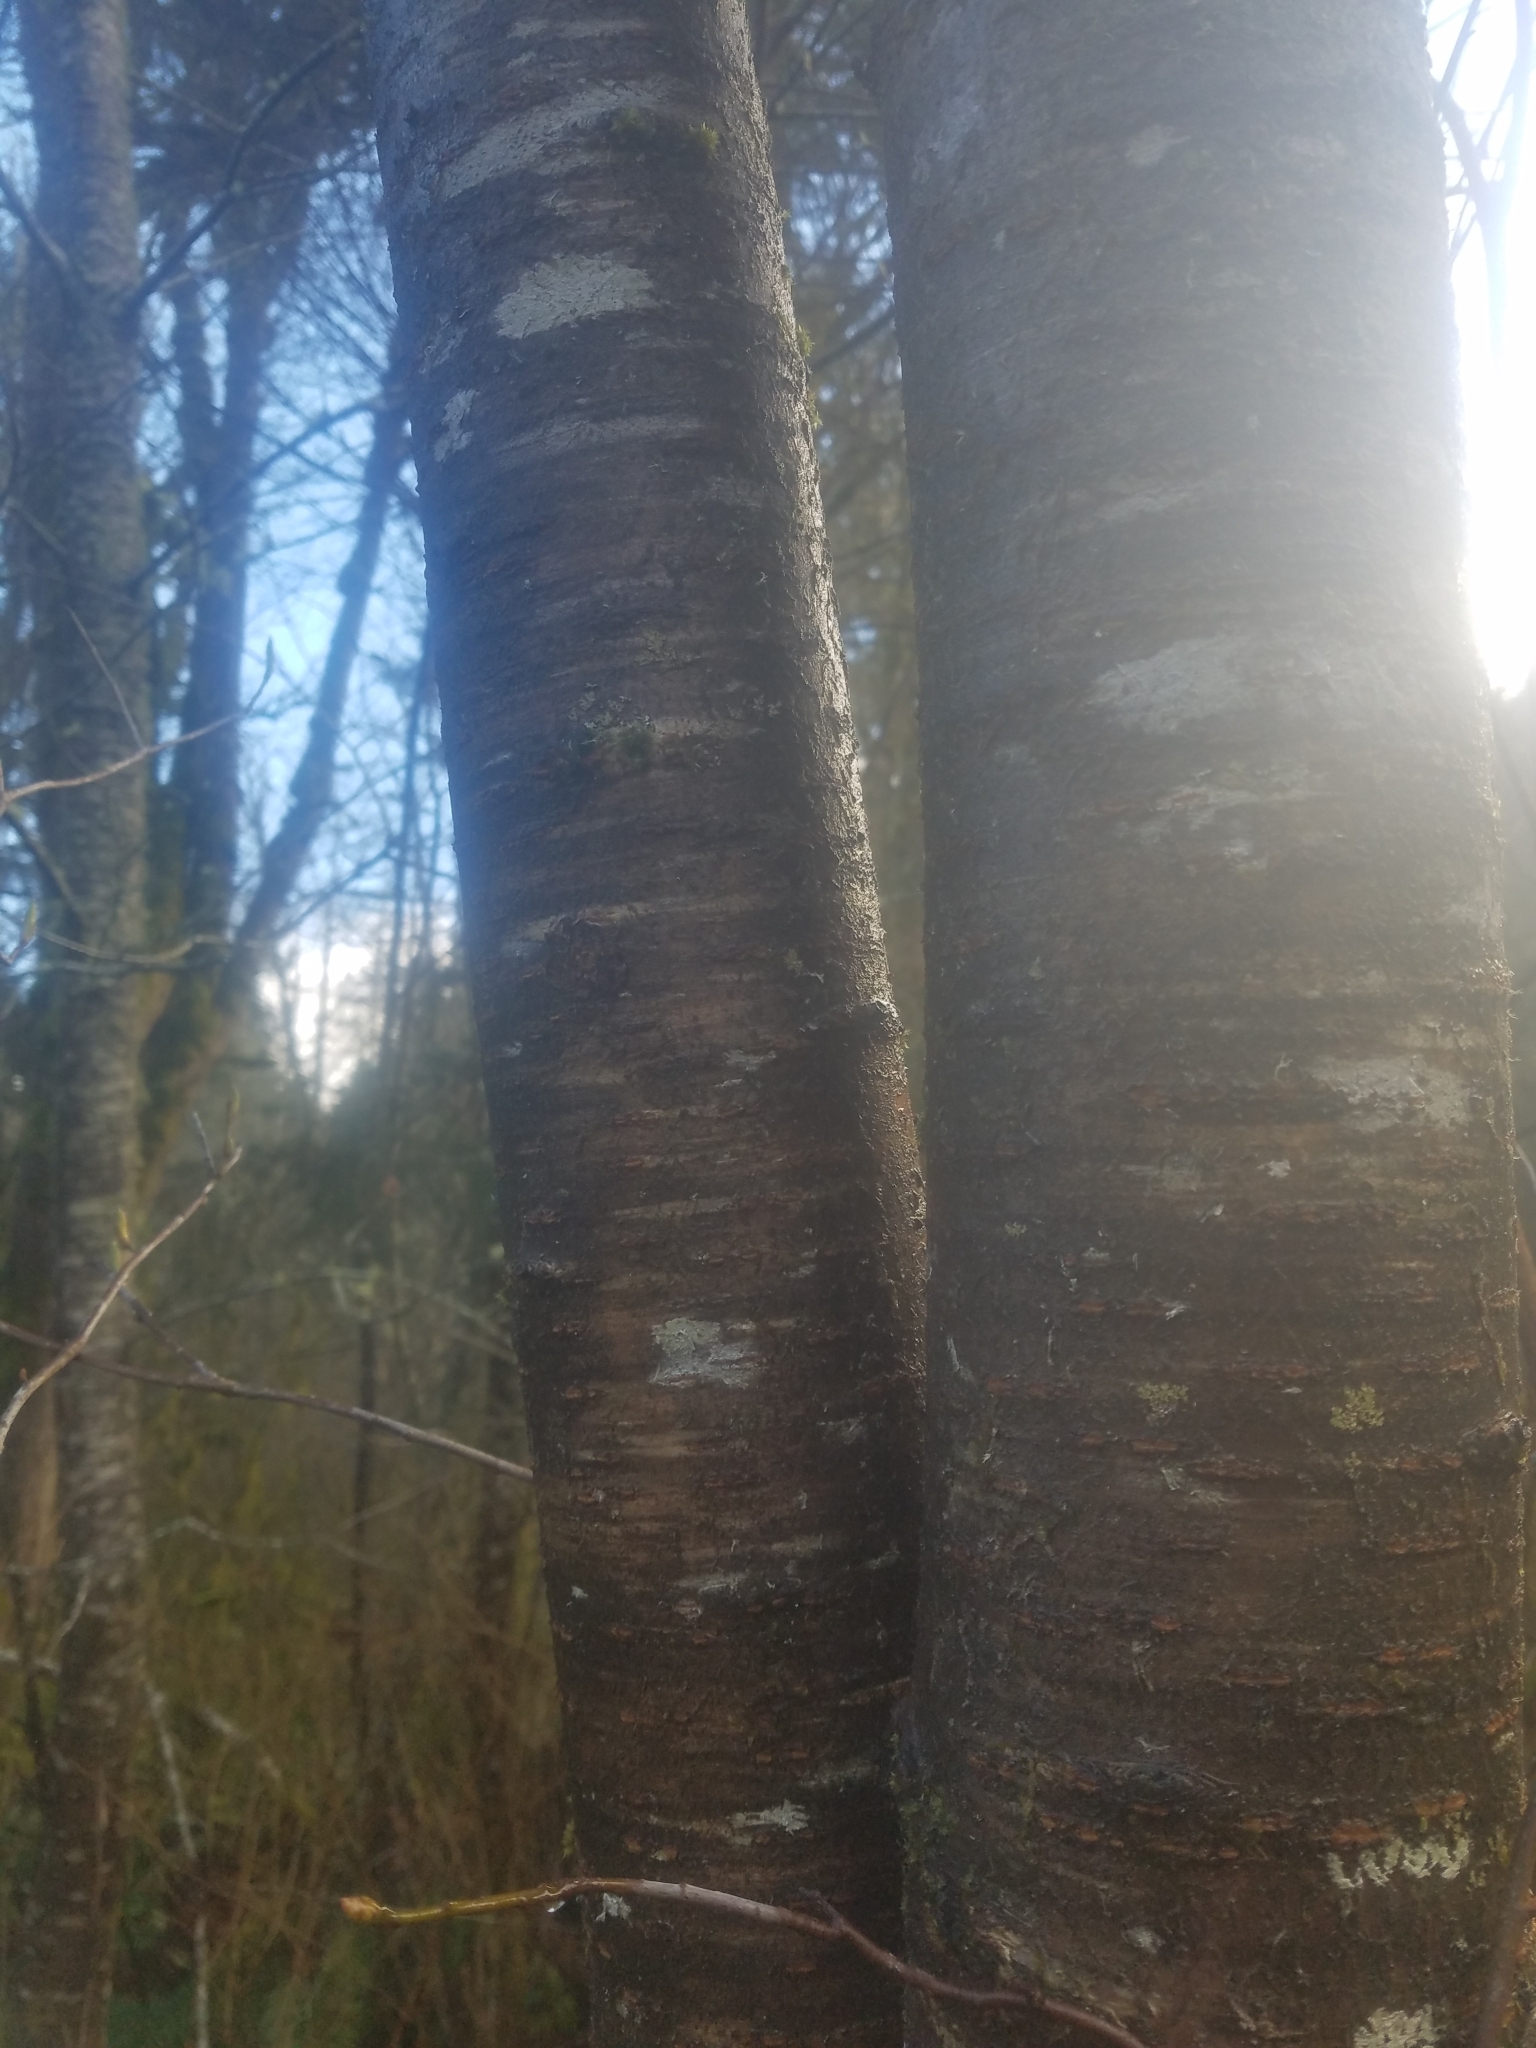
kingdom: Plantae
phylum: Tracheophyta
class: Magnoliopsida
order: Rosales
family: Rosaceae
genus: Prunus
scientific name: Prunus emarginata
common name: Bitter cherry
